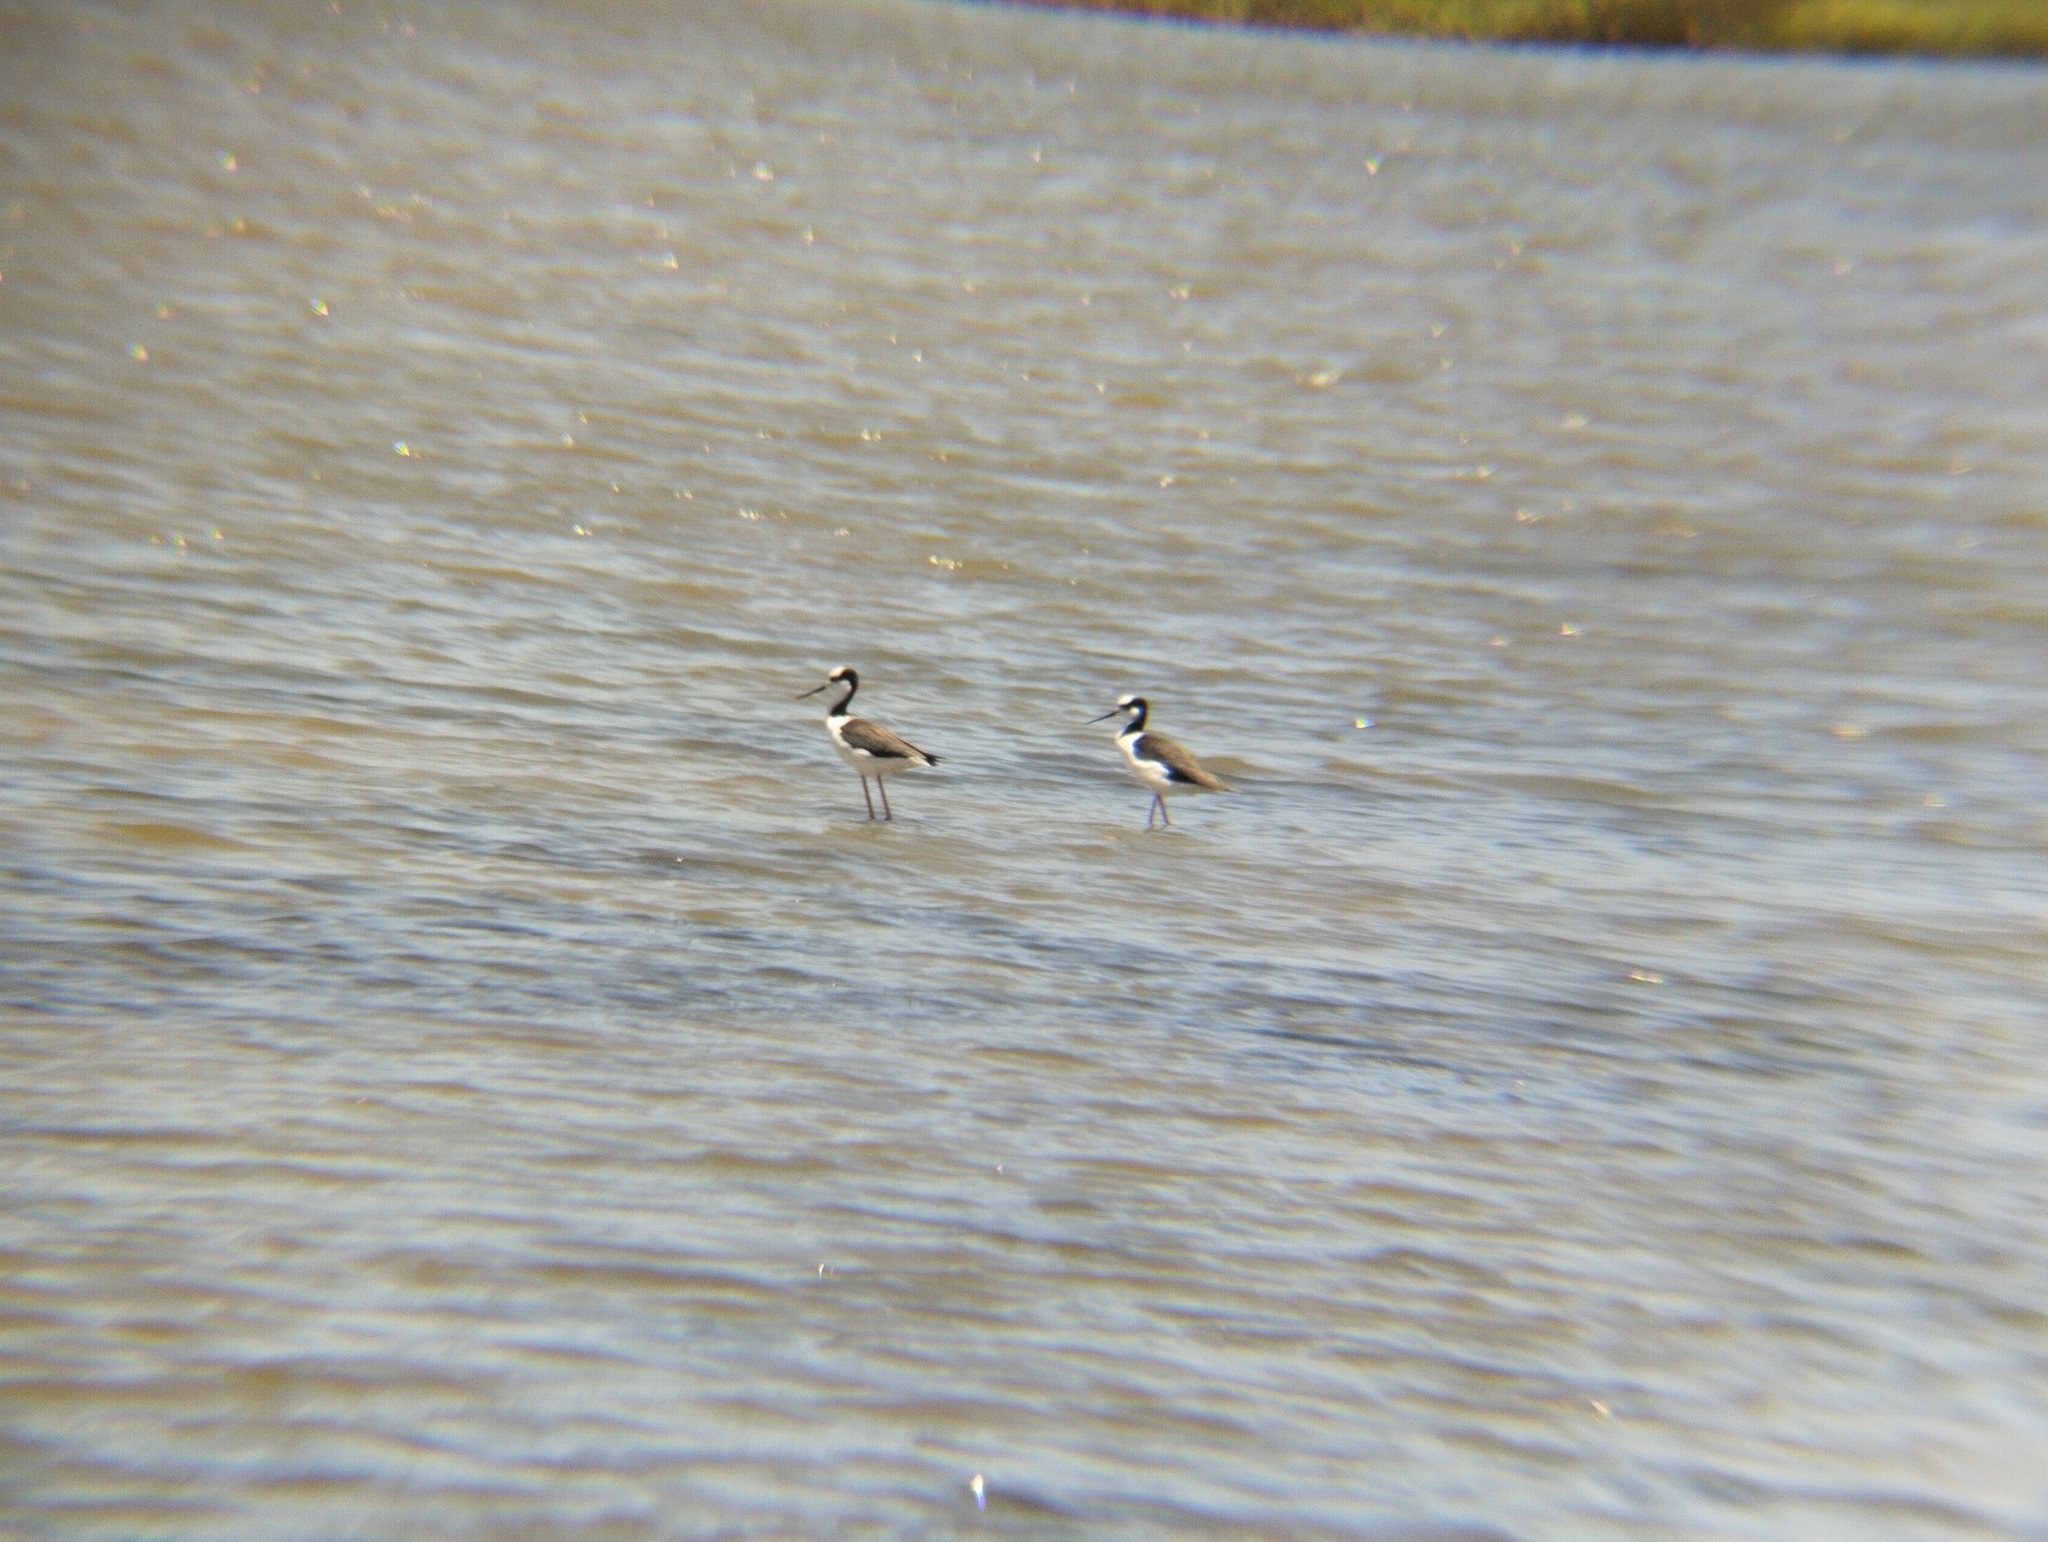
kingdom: Animalia
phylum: Chordata
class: Aves
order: Charadriiformes
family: Recurvirostridae
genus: Himantopus
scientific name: Himantopus mexicanus
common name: Black-necked stilt
